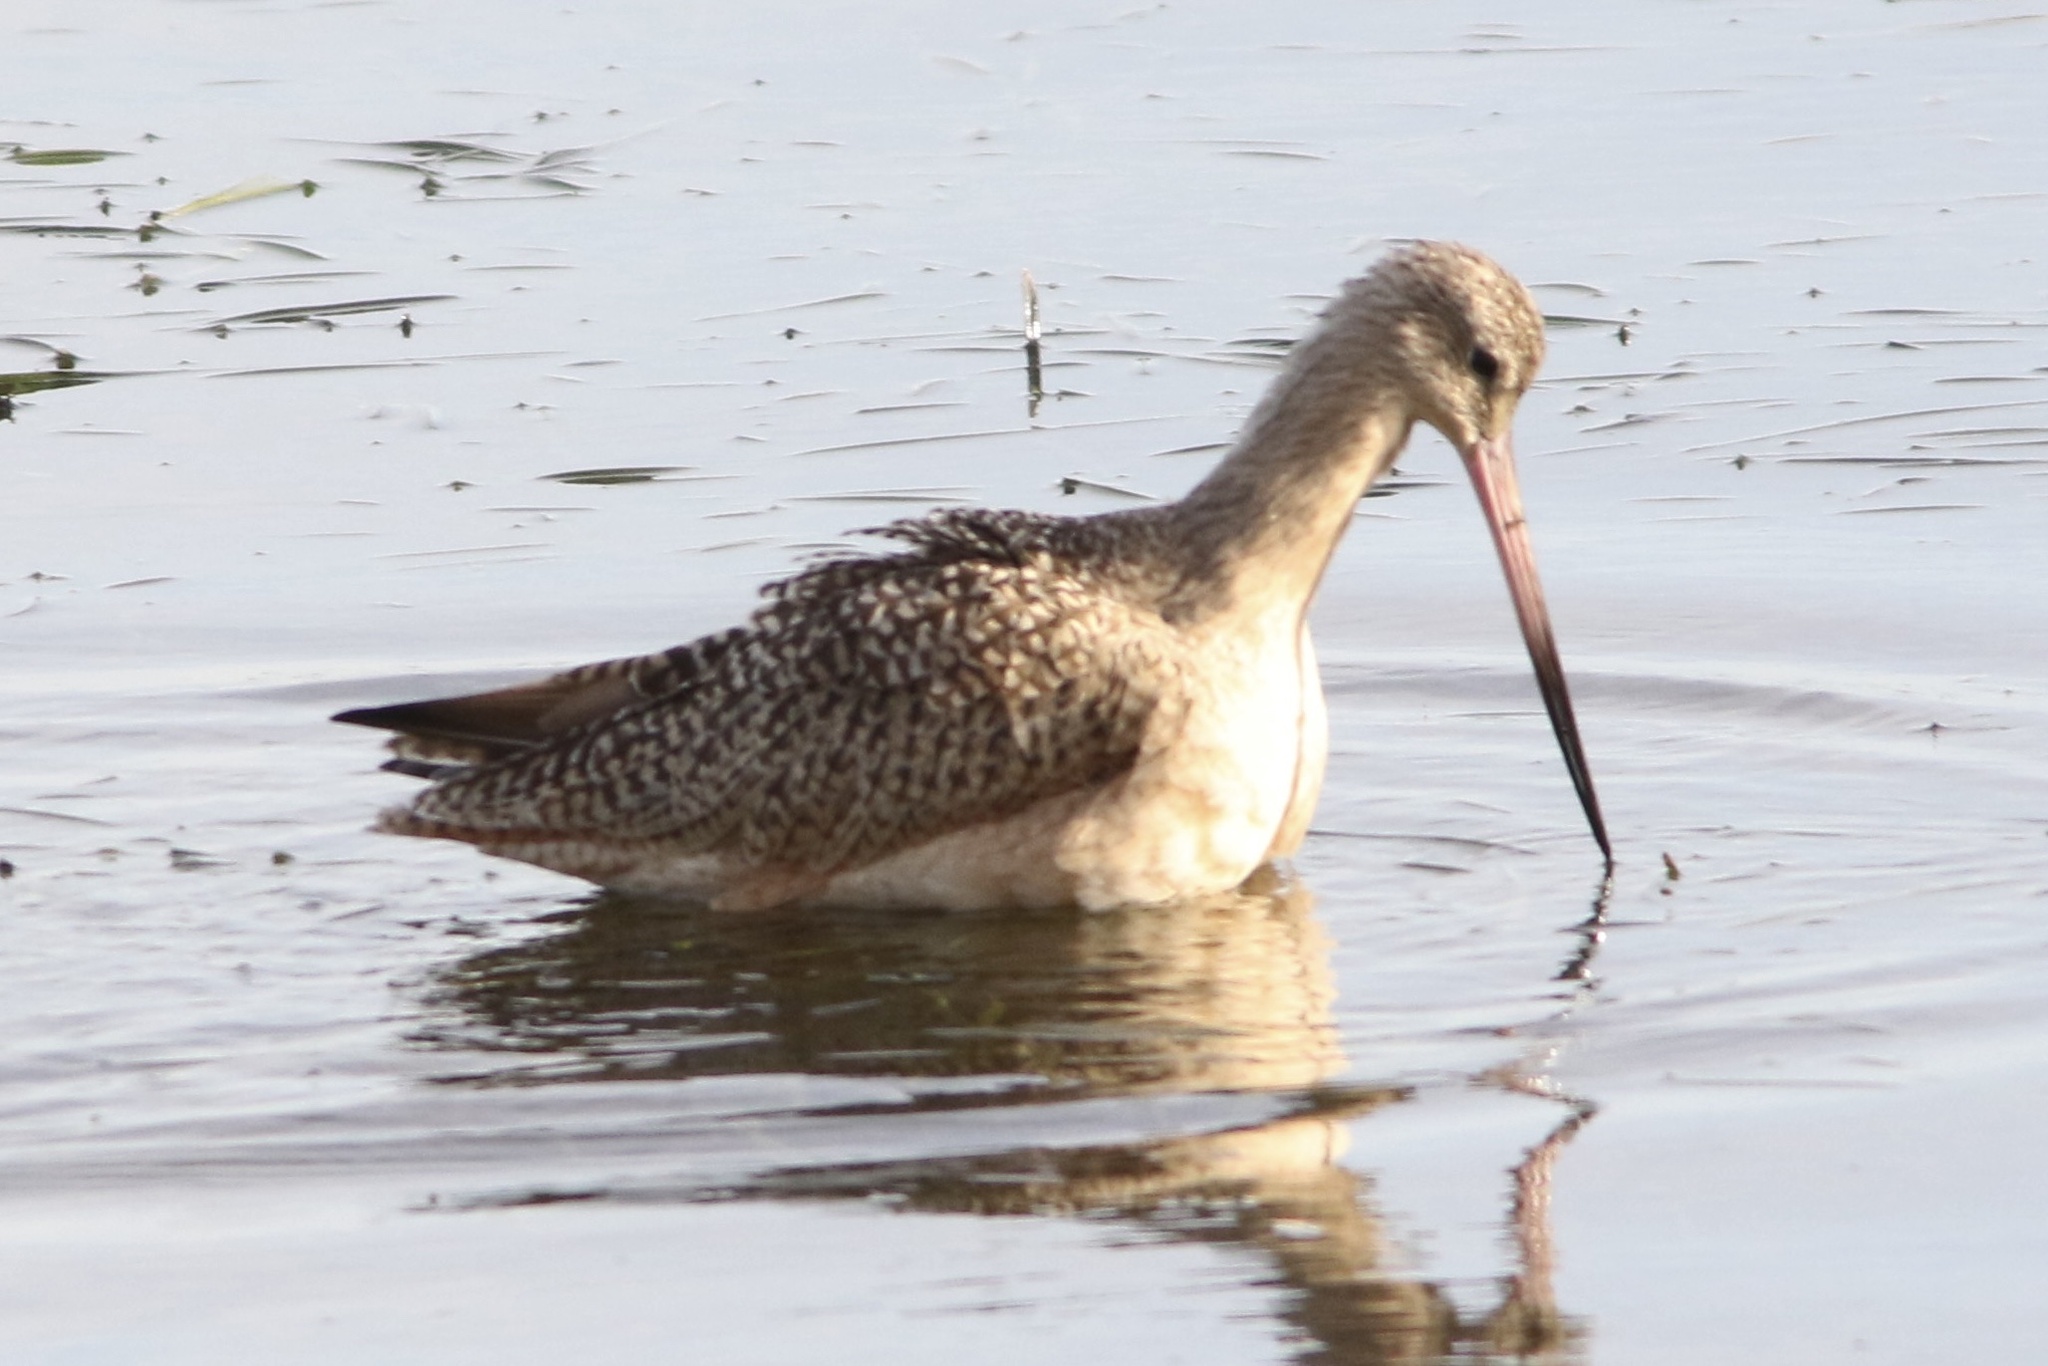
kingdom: Animalia
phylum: Chordata
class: Aves
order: Charadriiformes
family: Scolopacidae
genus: Limosa
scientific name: Limosa fedoa
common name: Marbled godwit
